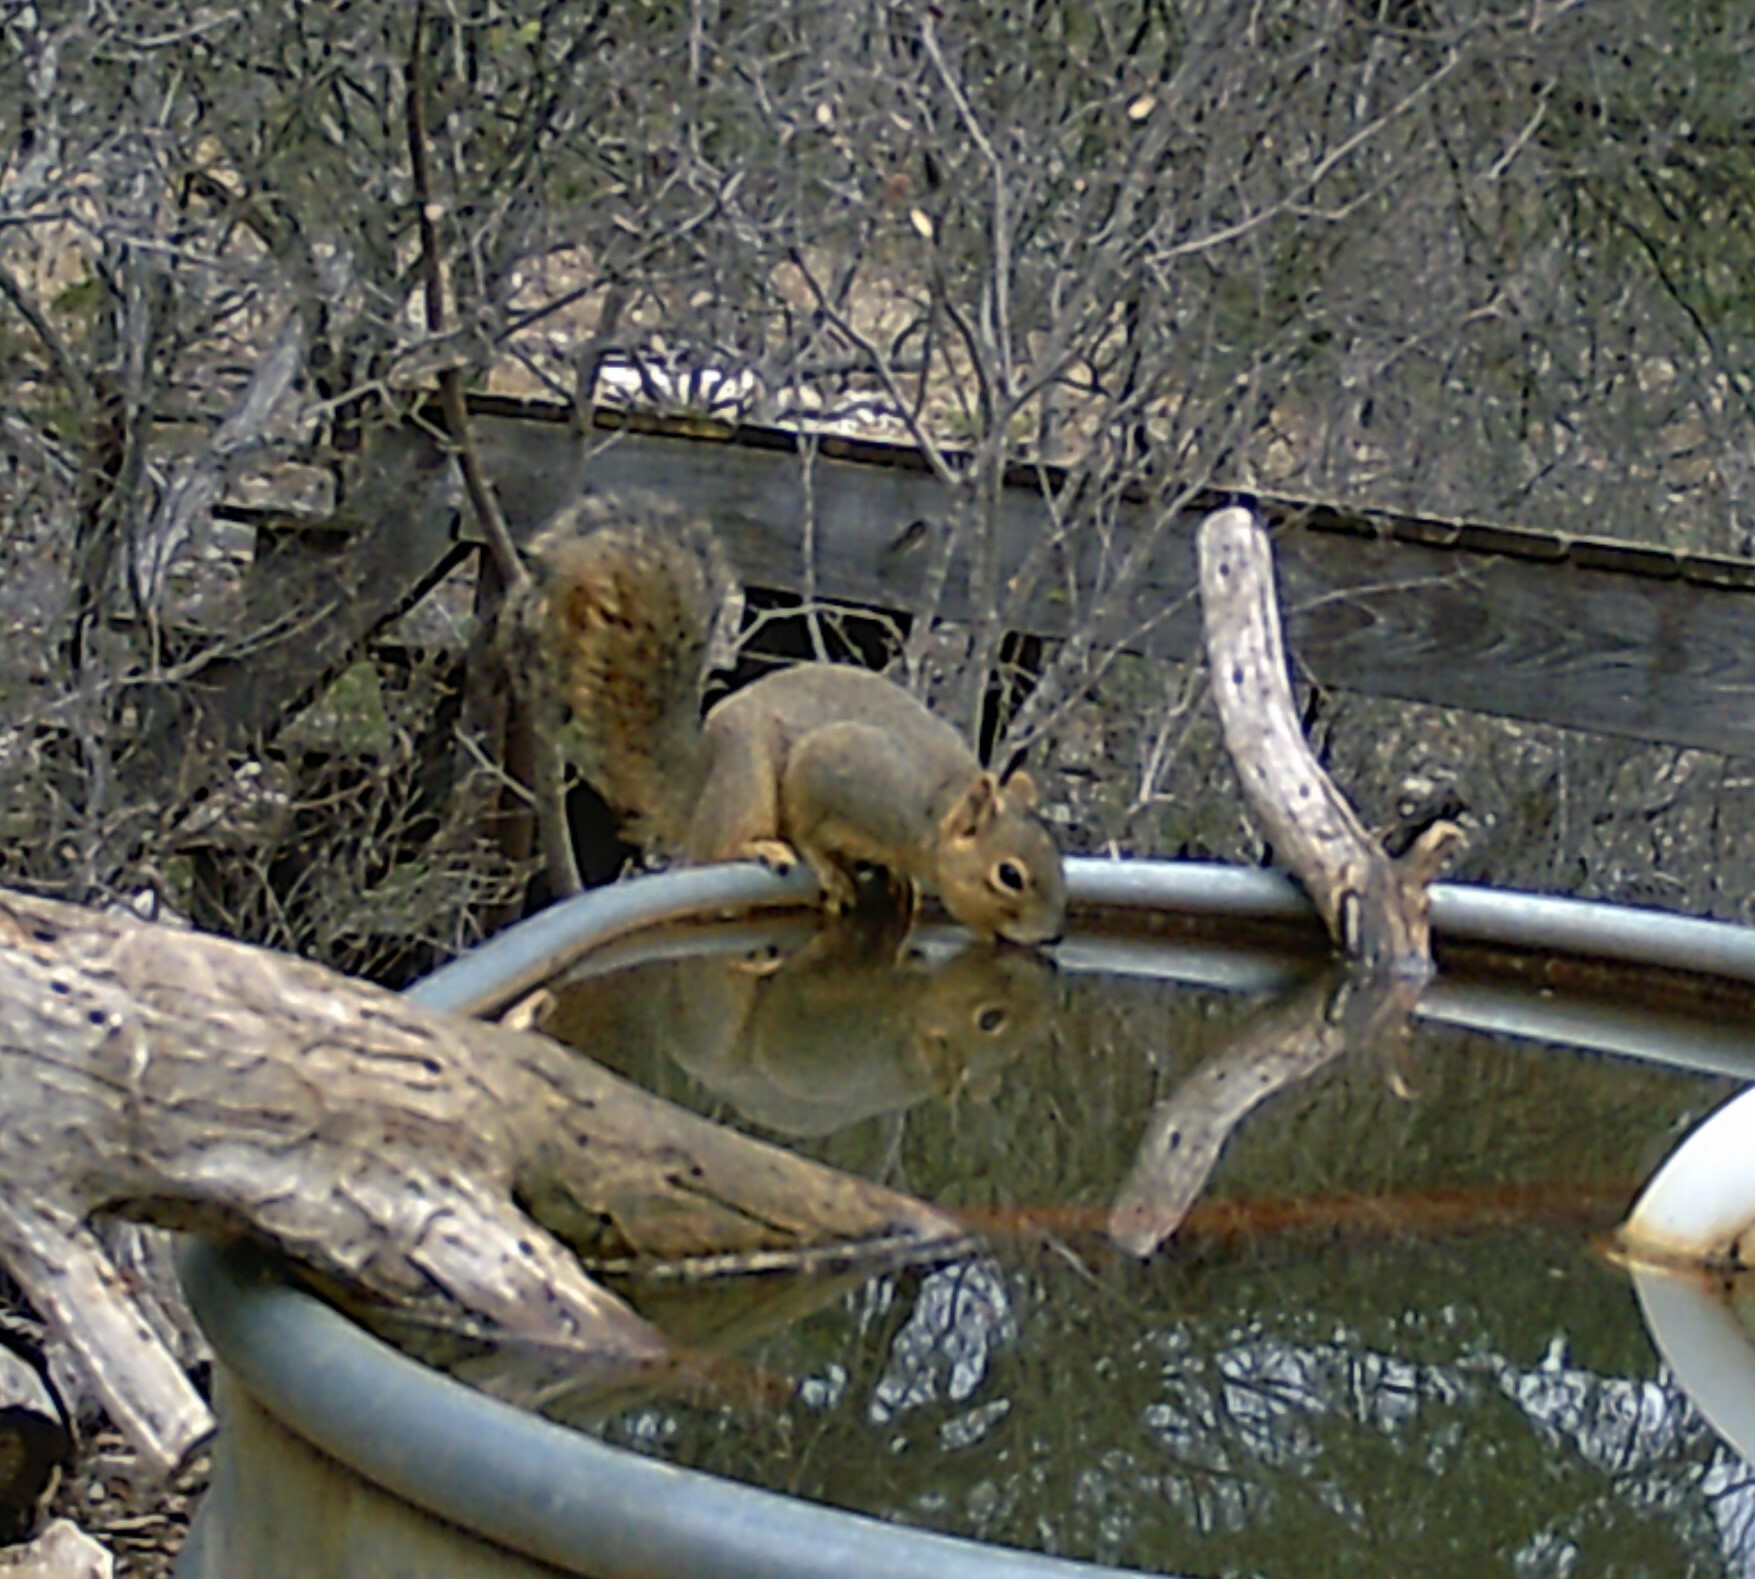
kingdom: Animalia
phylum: Chordata
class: Mammalia
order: Rodentia
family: Sciuridae
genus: Sciurus
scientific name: Sciurus niger
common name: Fox squirrel
